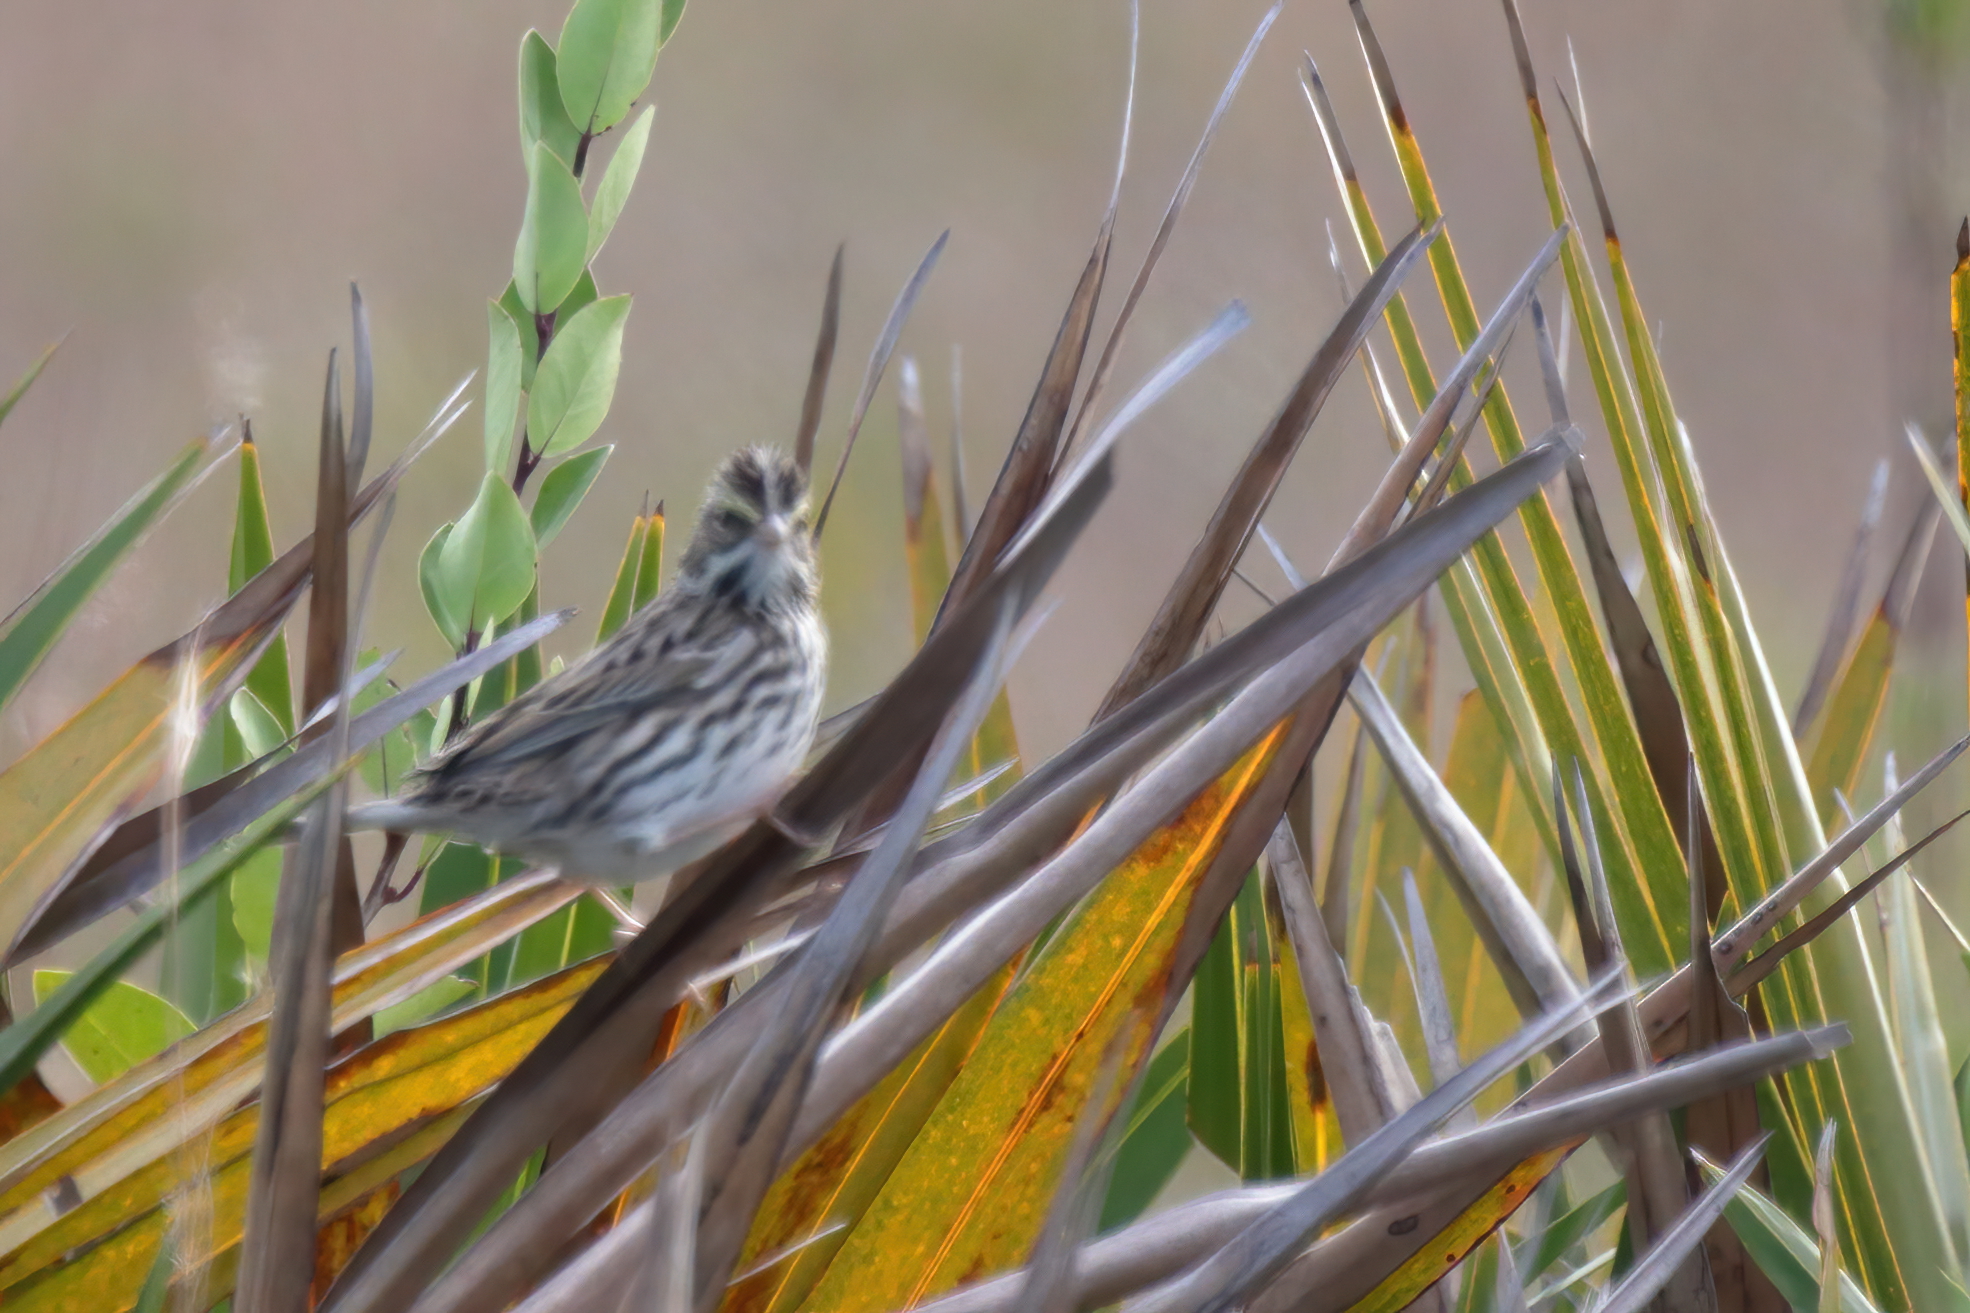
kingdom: Animalia
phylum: Chordata
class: Aves
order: Passeriformes
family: Passerellidae
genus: Passerculus
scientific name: Passerculus sandwichensis
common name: Savannah sparrow
